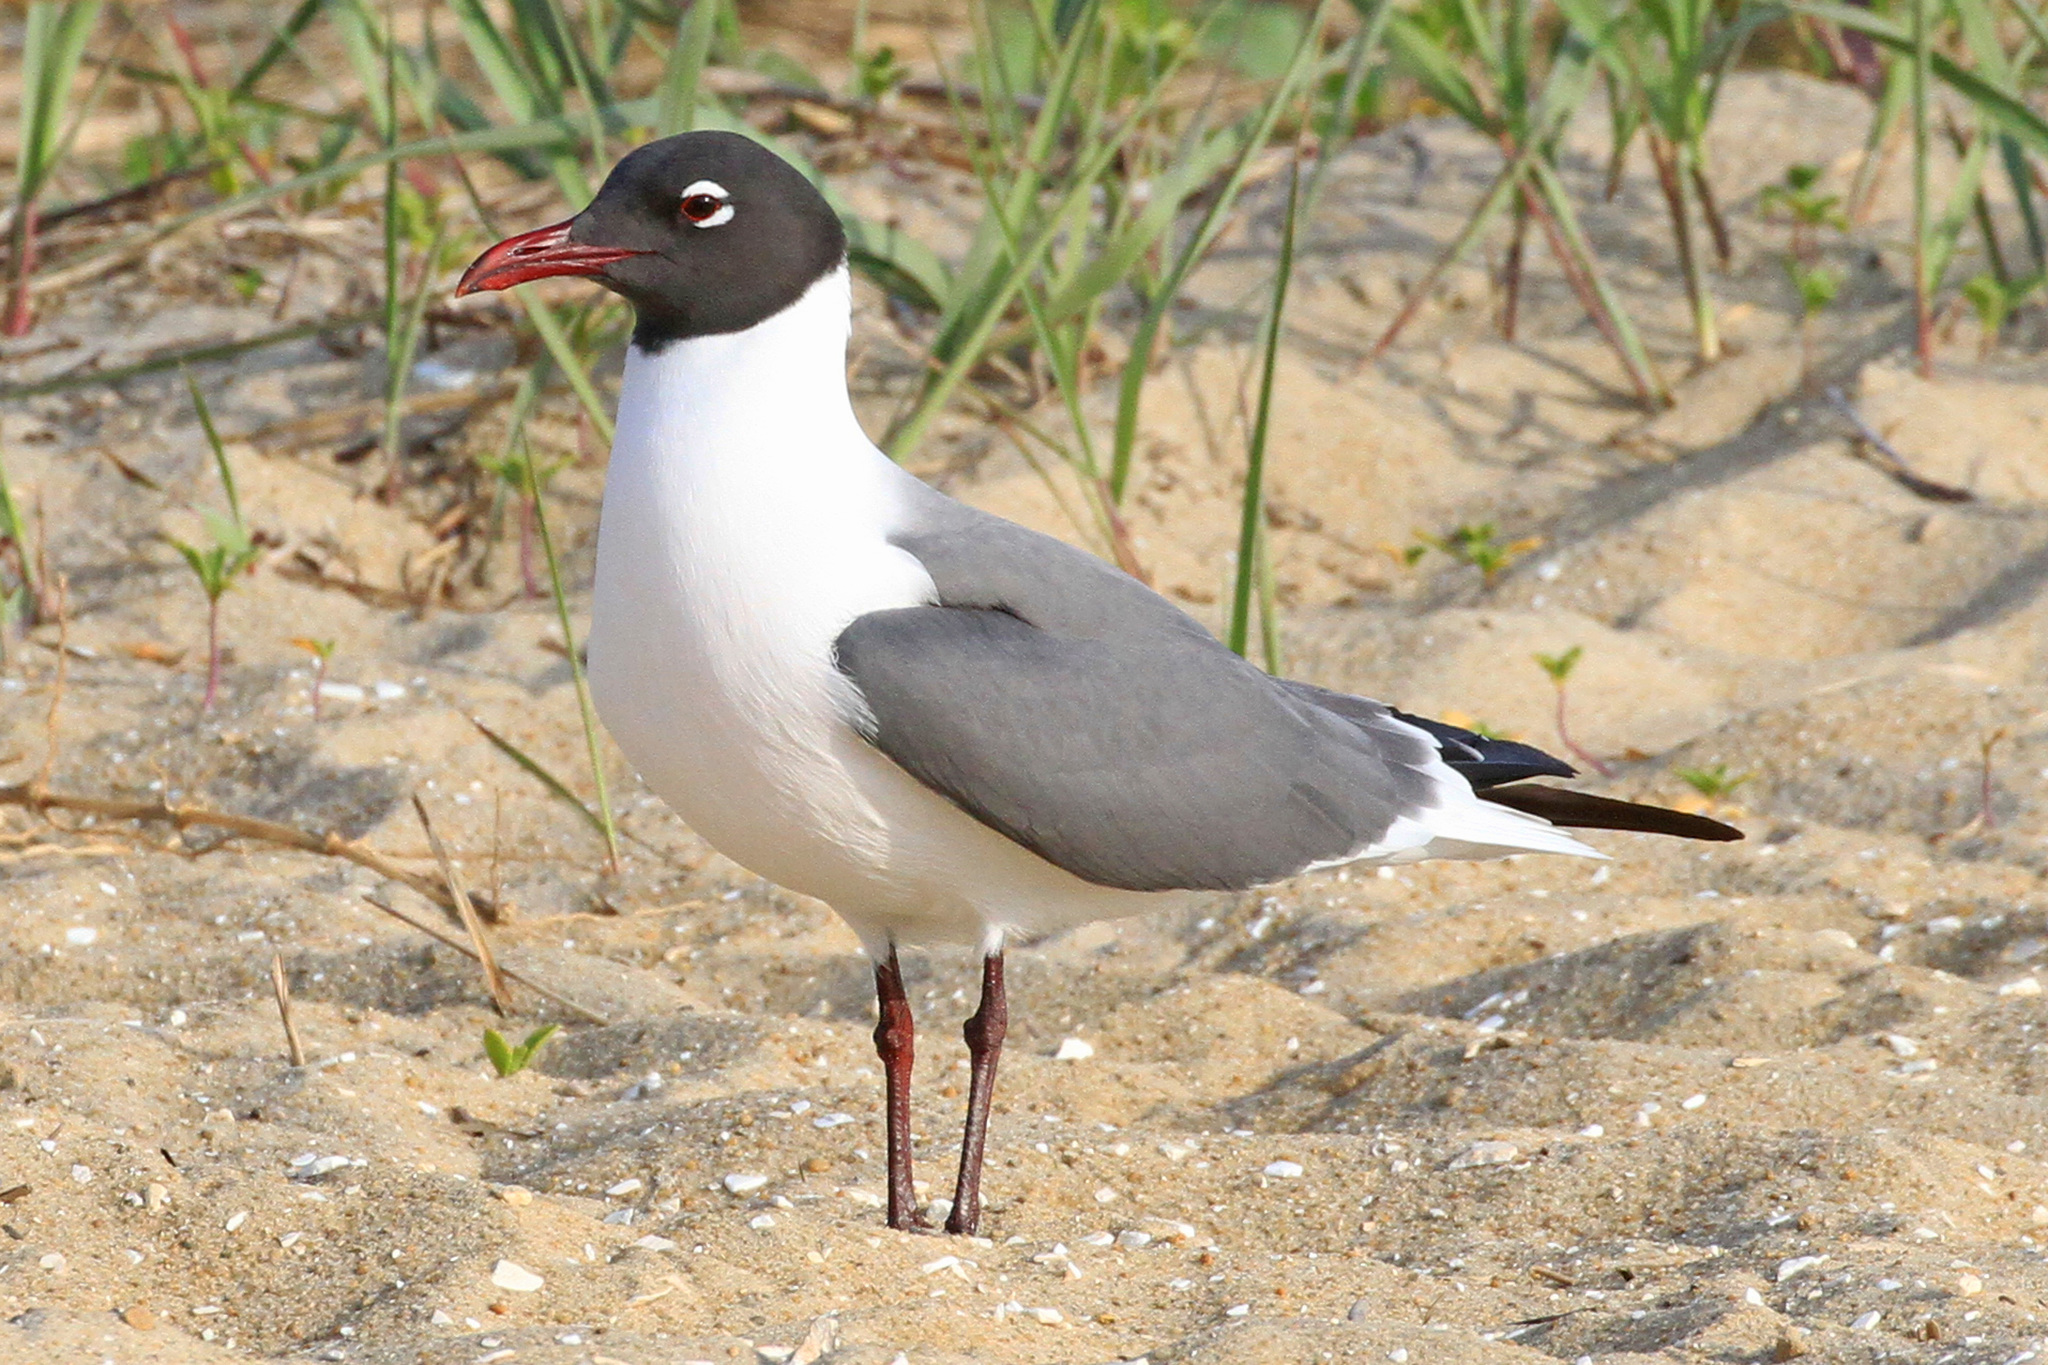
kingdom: Animalia
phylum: Chordata
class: Aves
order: Charadriiformes
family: Laridae
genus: Leucophaeus
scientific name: Leucophaeus atricilla
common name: Laughing gull
